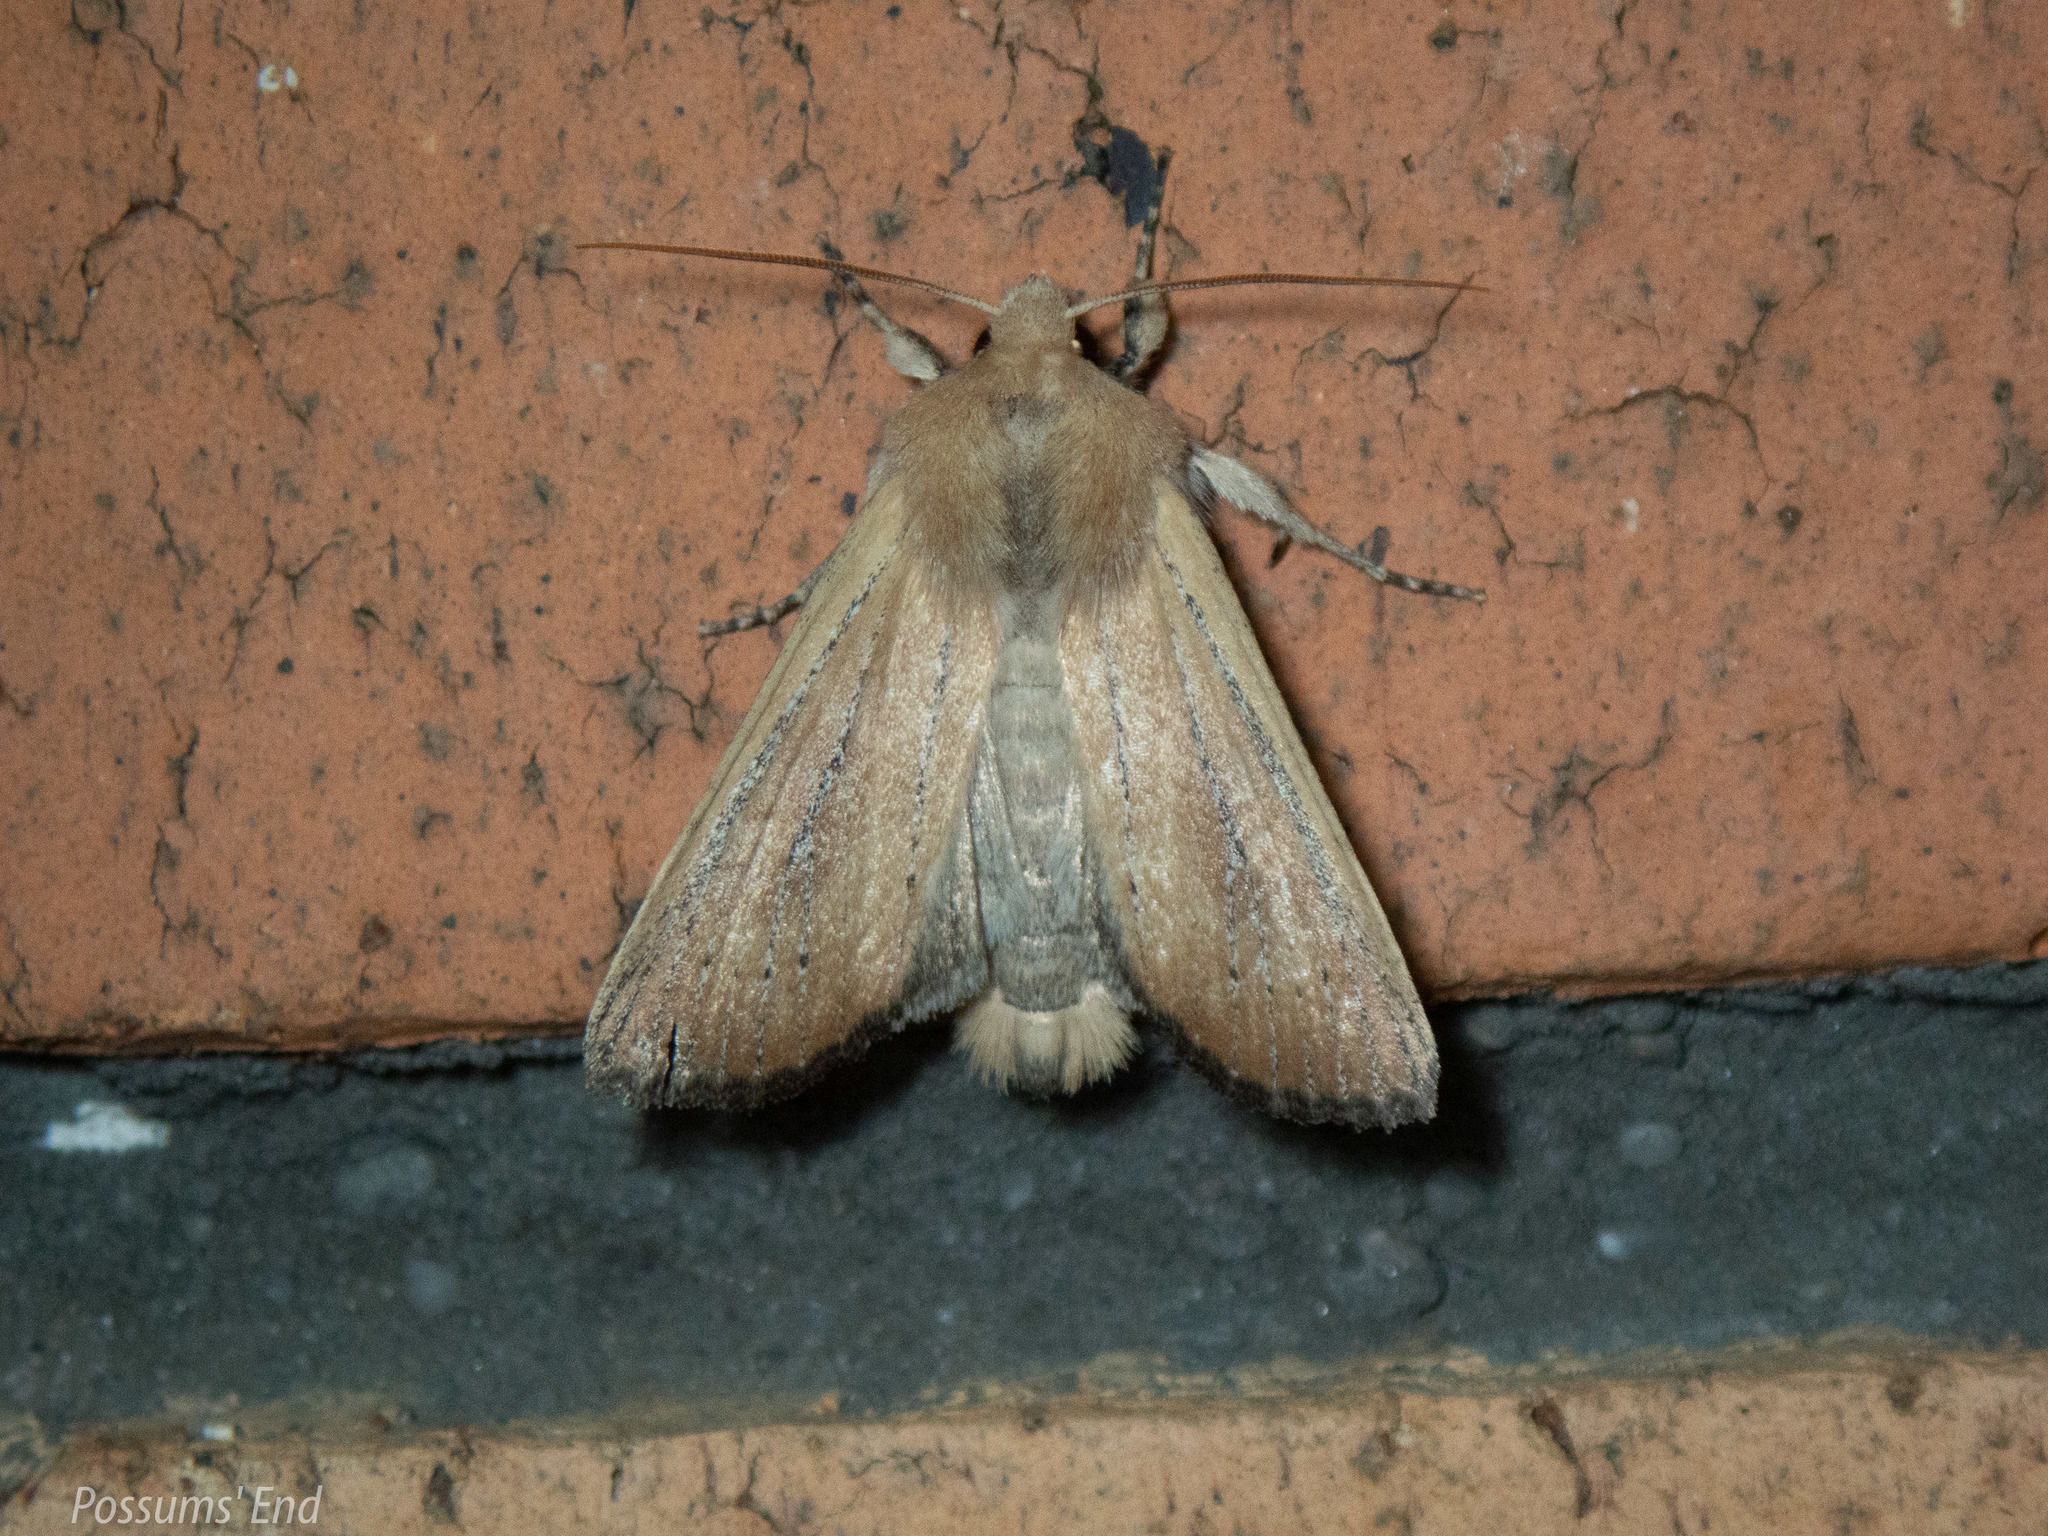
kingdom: Animalia
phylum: Arthropoda
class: Insecta
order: Lepidoptera
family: Noctuidae
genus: Ichneutica
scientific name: Ichneutica blenheimensis
